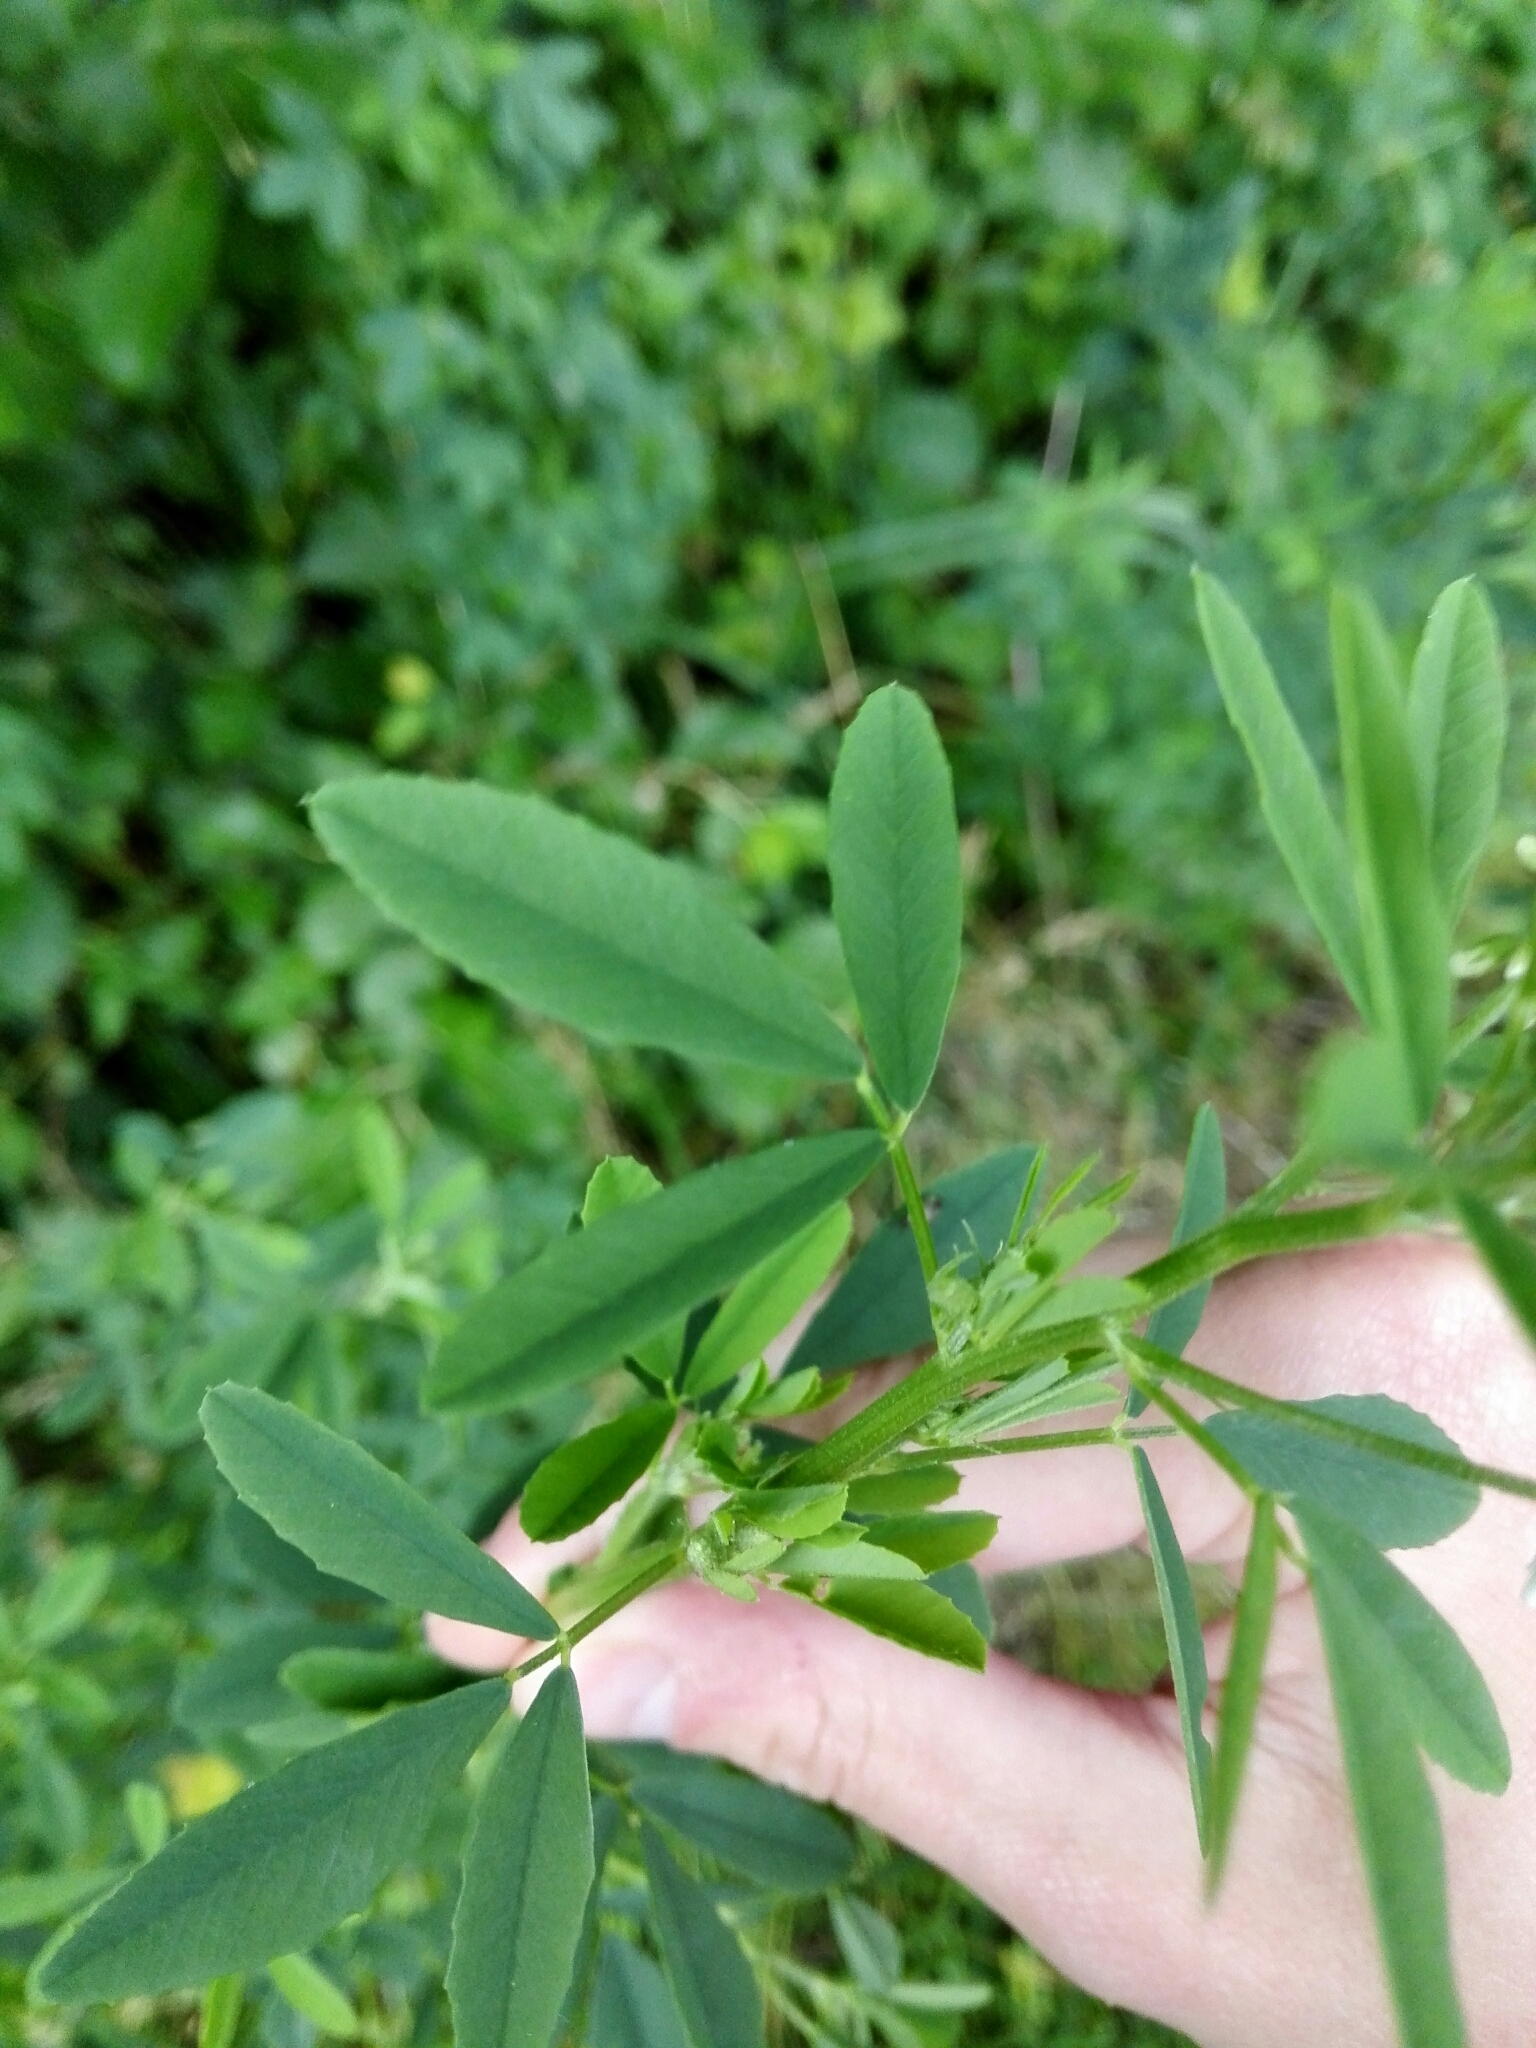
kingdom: Plantae
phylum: Tracheophyta
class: Magnoliopsida
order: Fabales
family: Fabaceae
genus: Melilotus
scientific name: Melilotus albus
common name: White melilot
